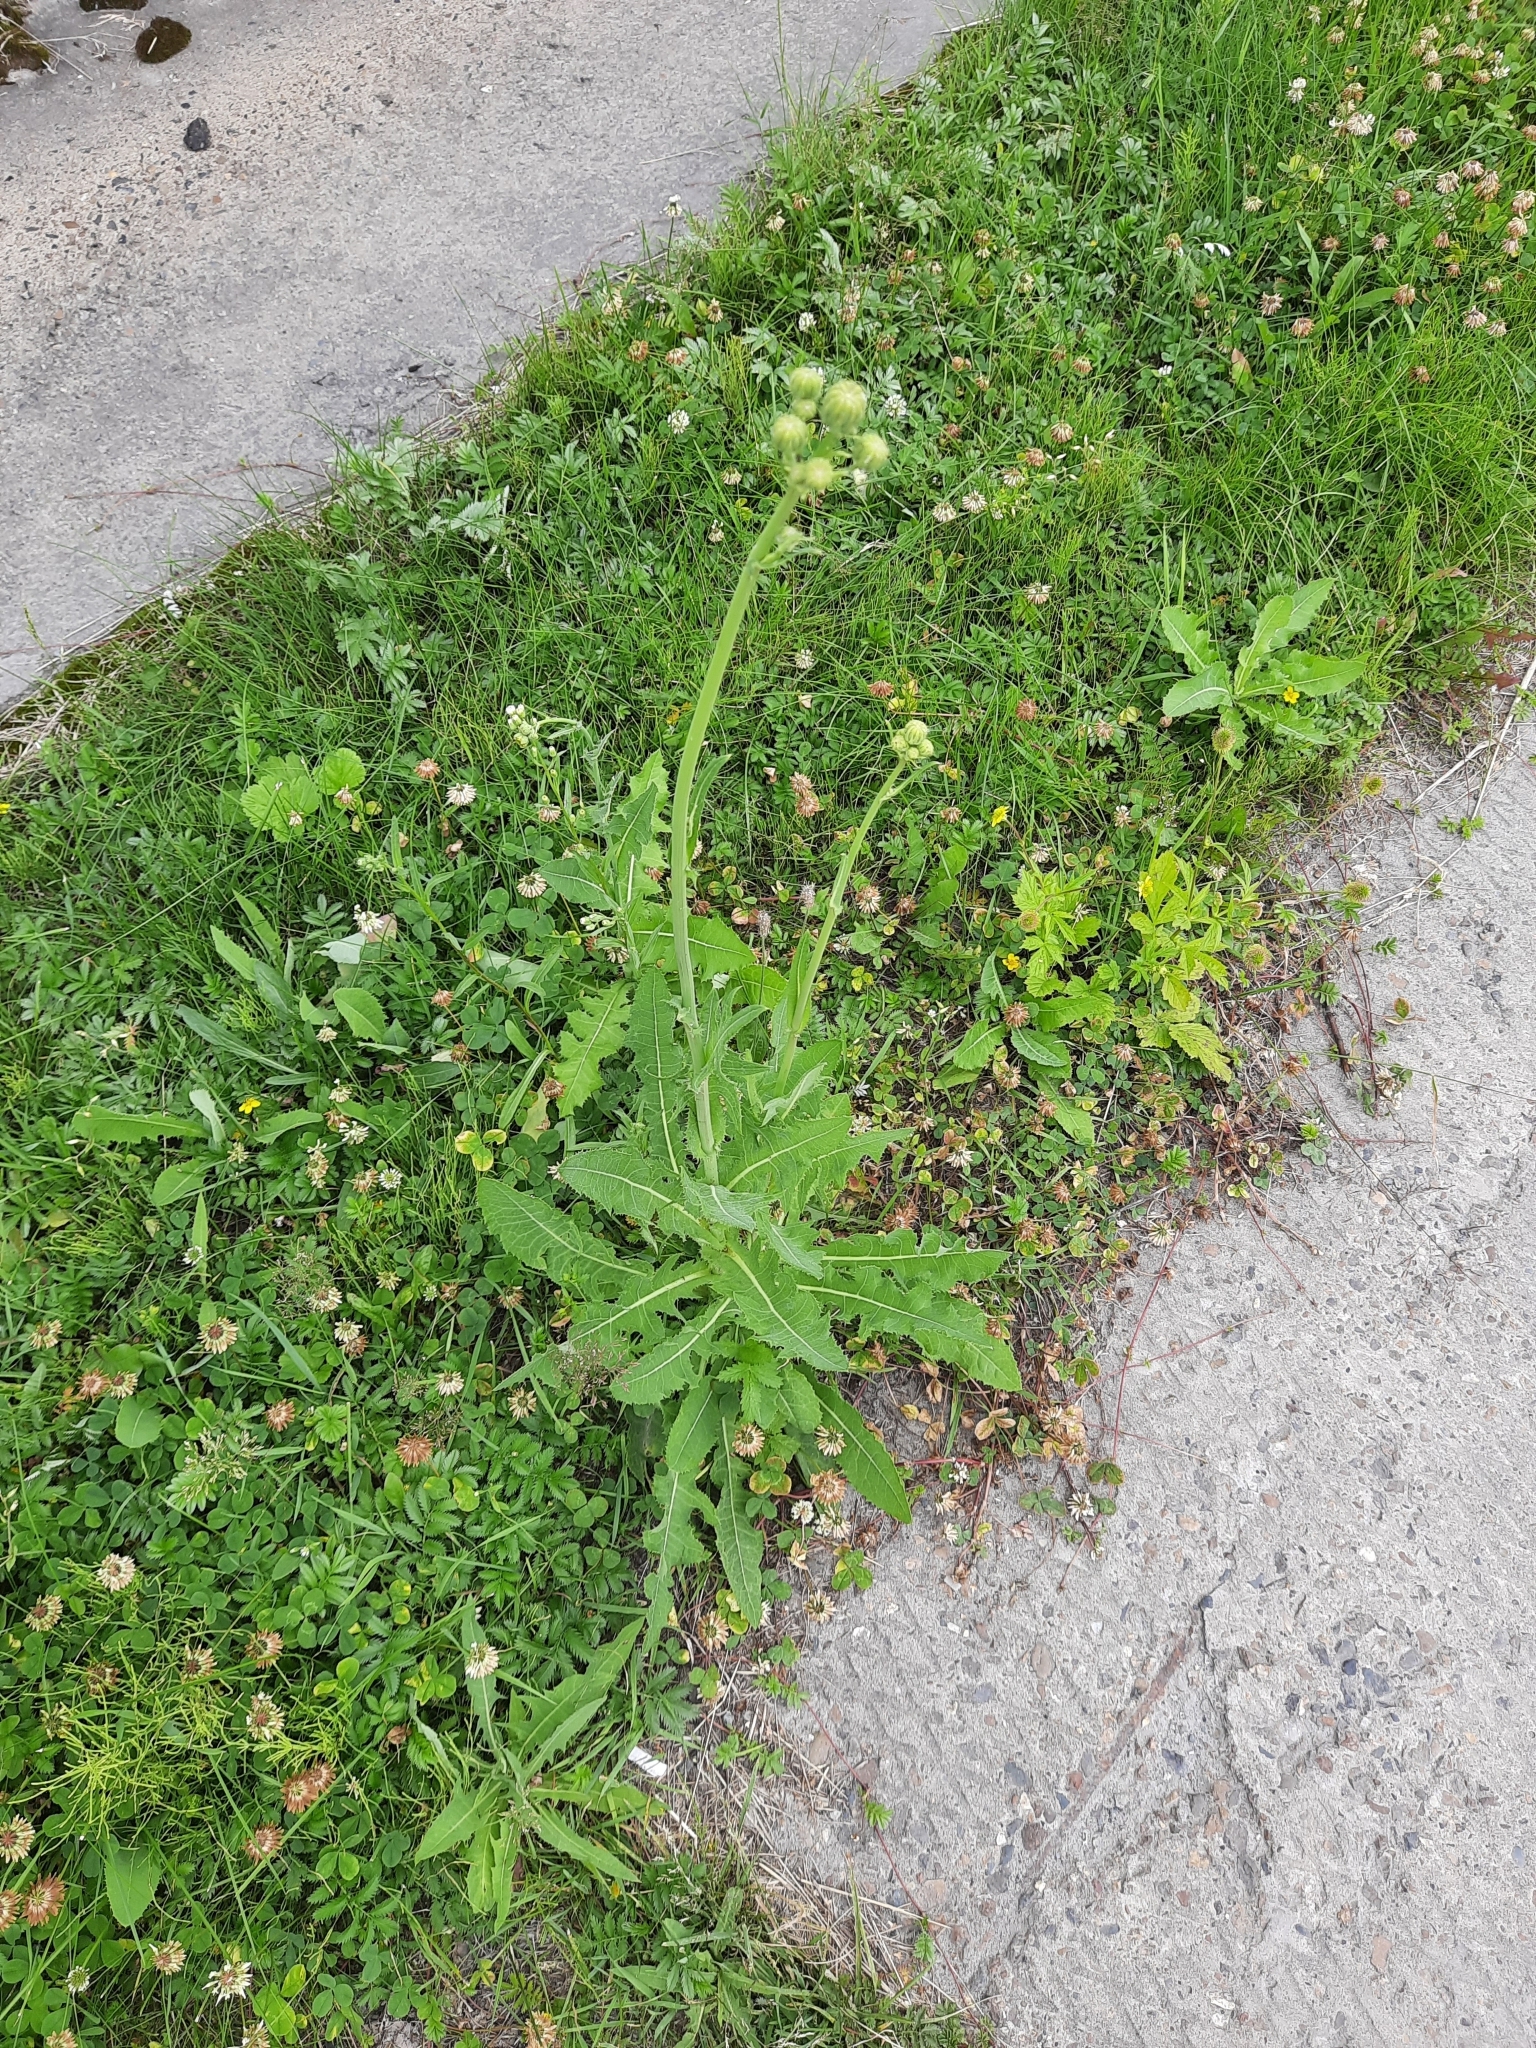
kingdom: Plantae
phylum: Tracheophyta
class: Magnoliopsida
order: Asterales
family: Asteraceae
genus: Sonchus
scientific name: Sonchus arvensis
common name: Perennial sow-thistle
